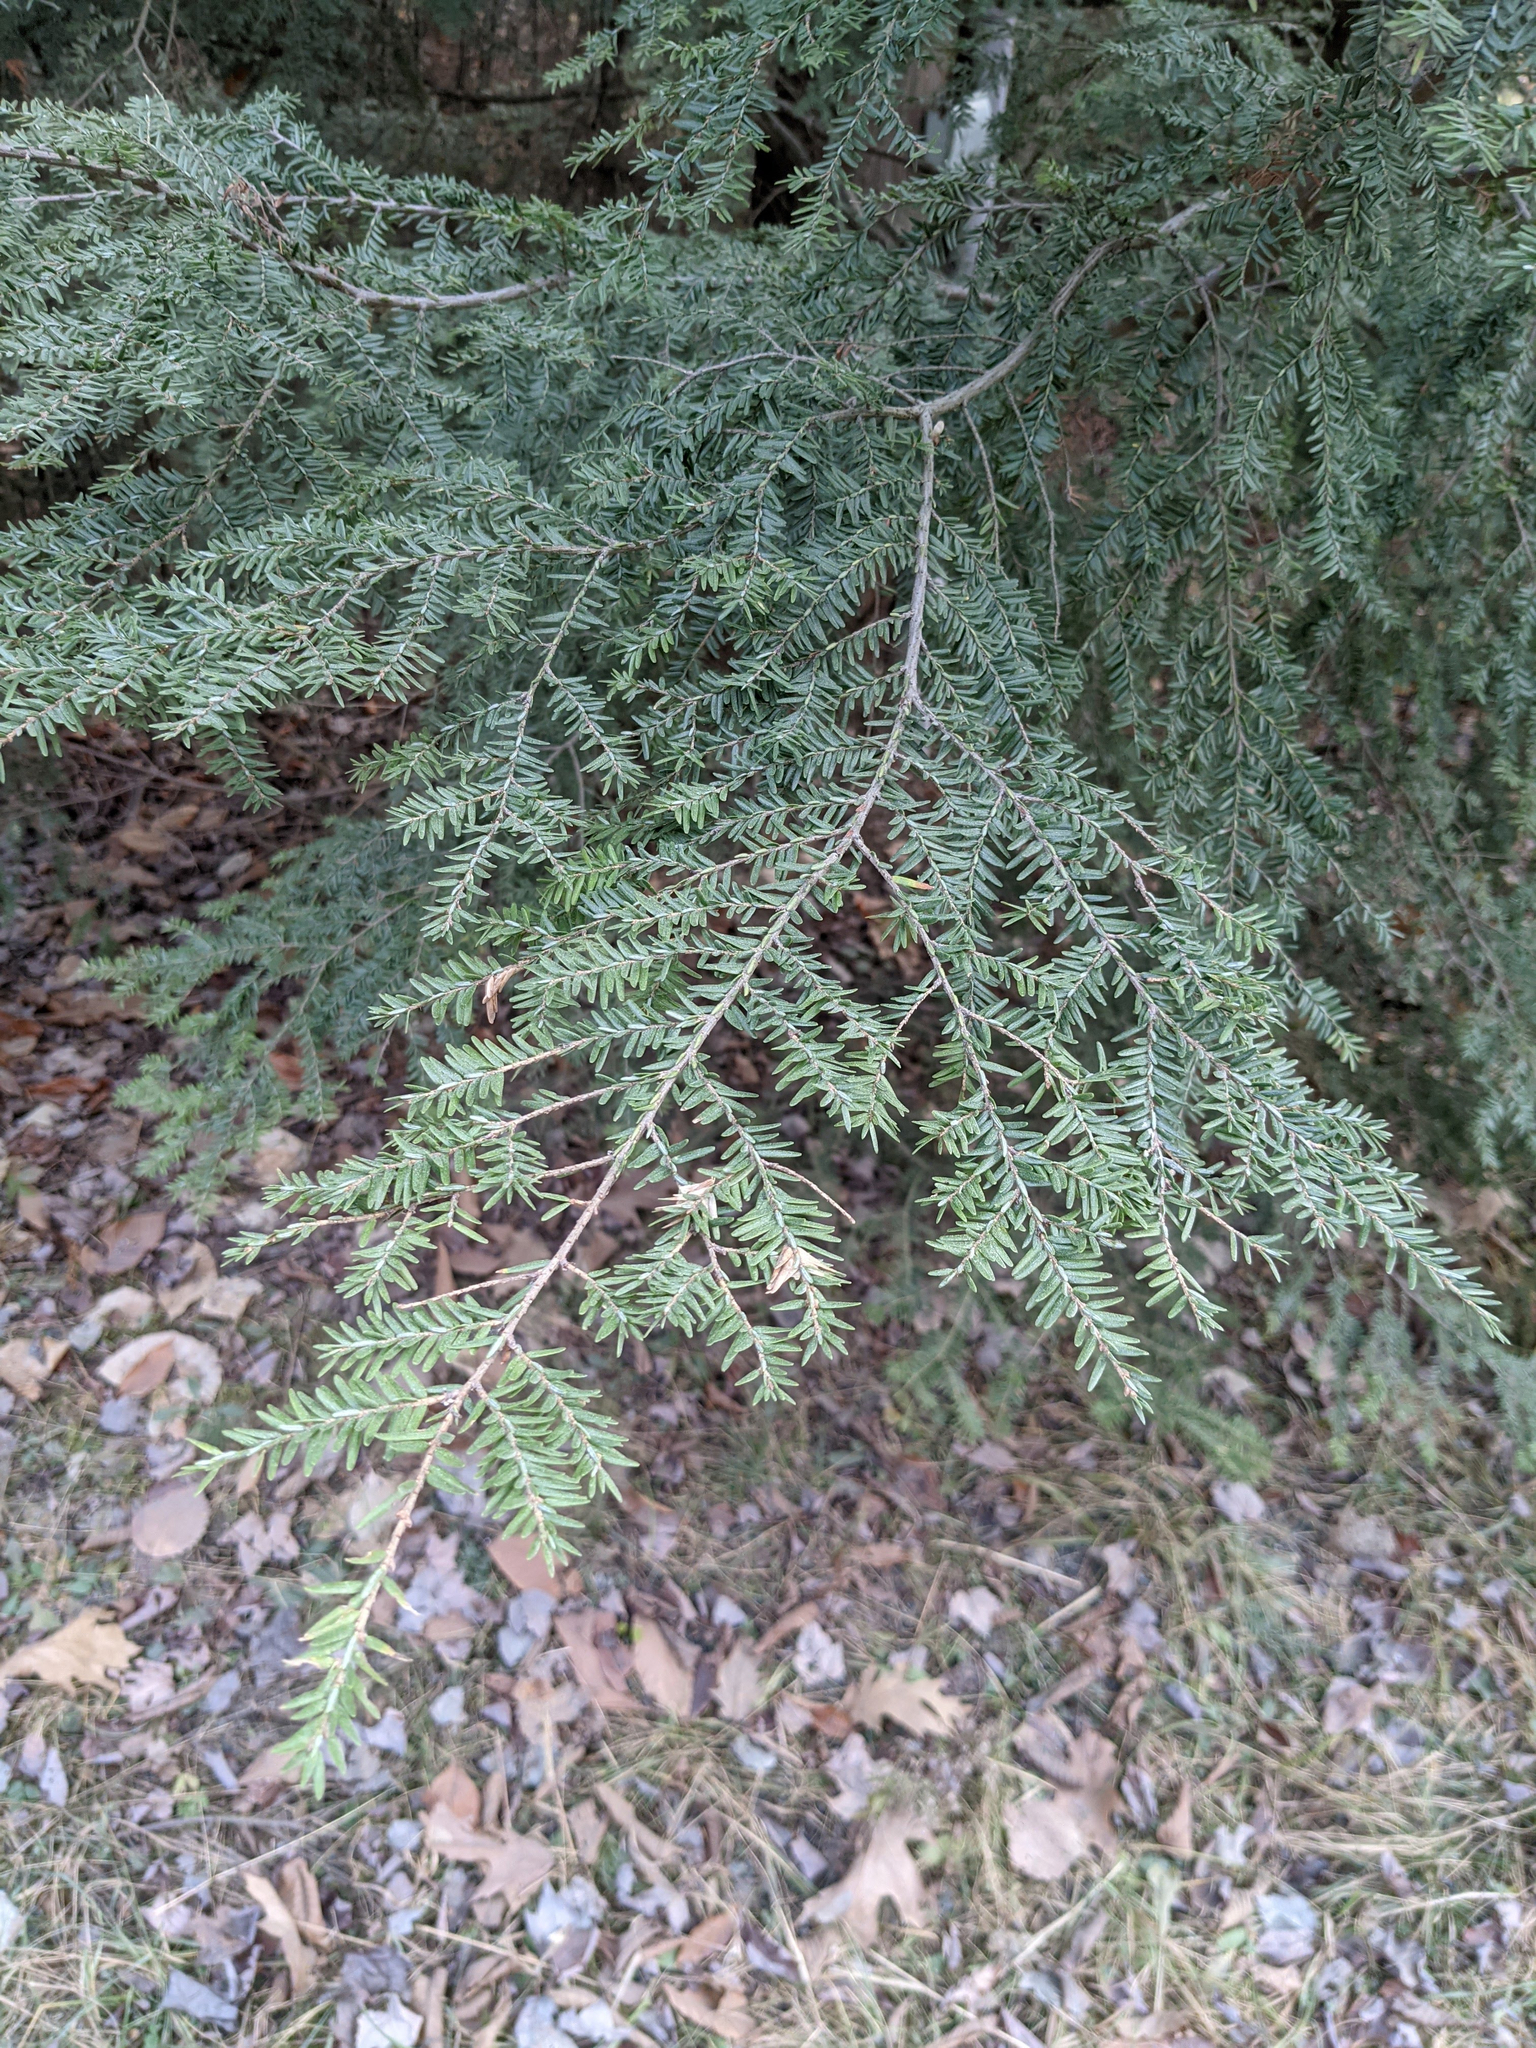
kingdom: Plantae
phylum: Tracheophyta
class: Pinopsida
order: Pinales
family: Pinaceae
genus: Tsuga
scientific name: Tsuga canadensis
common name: Eastern hemlock
